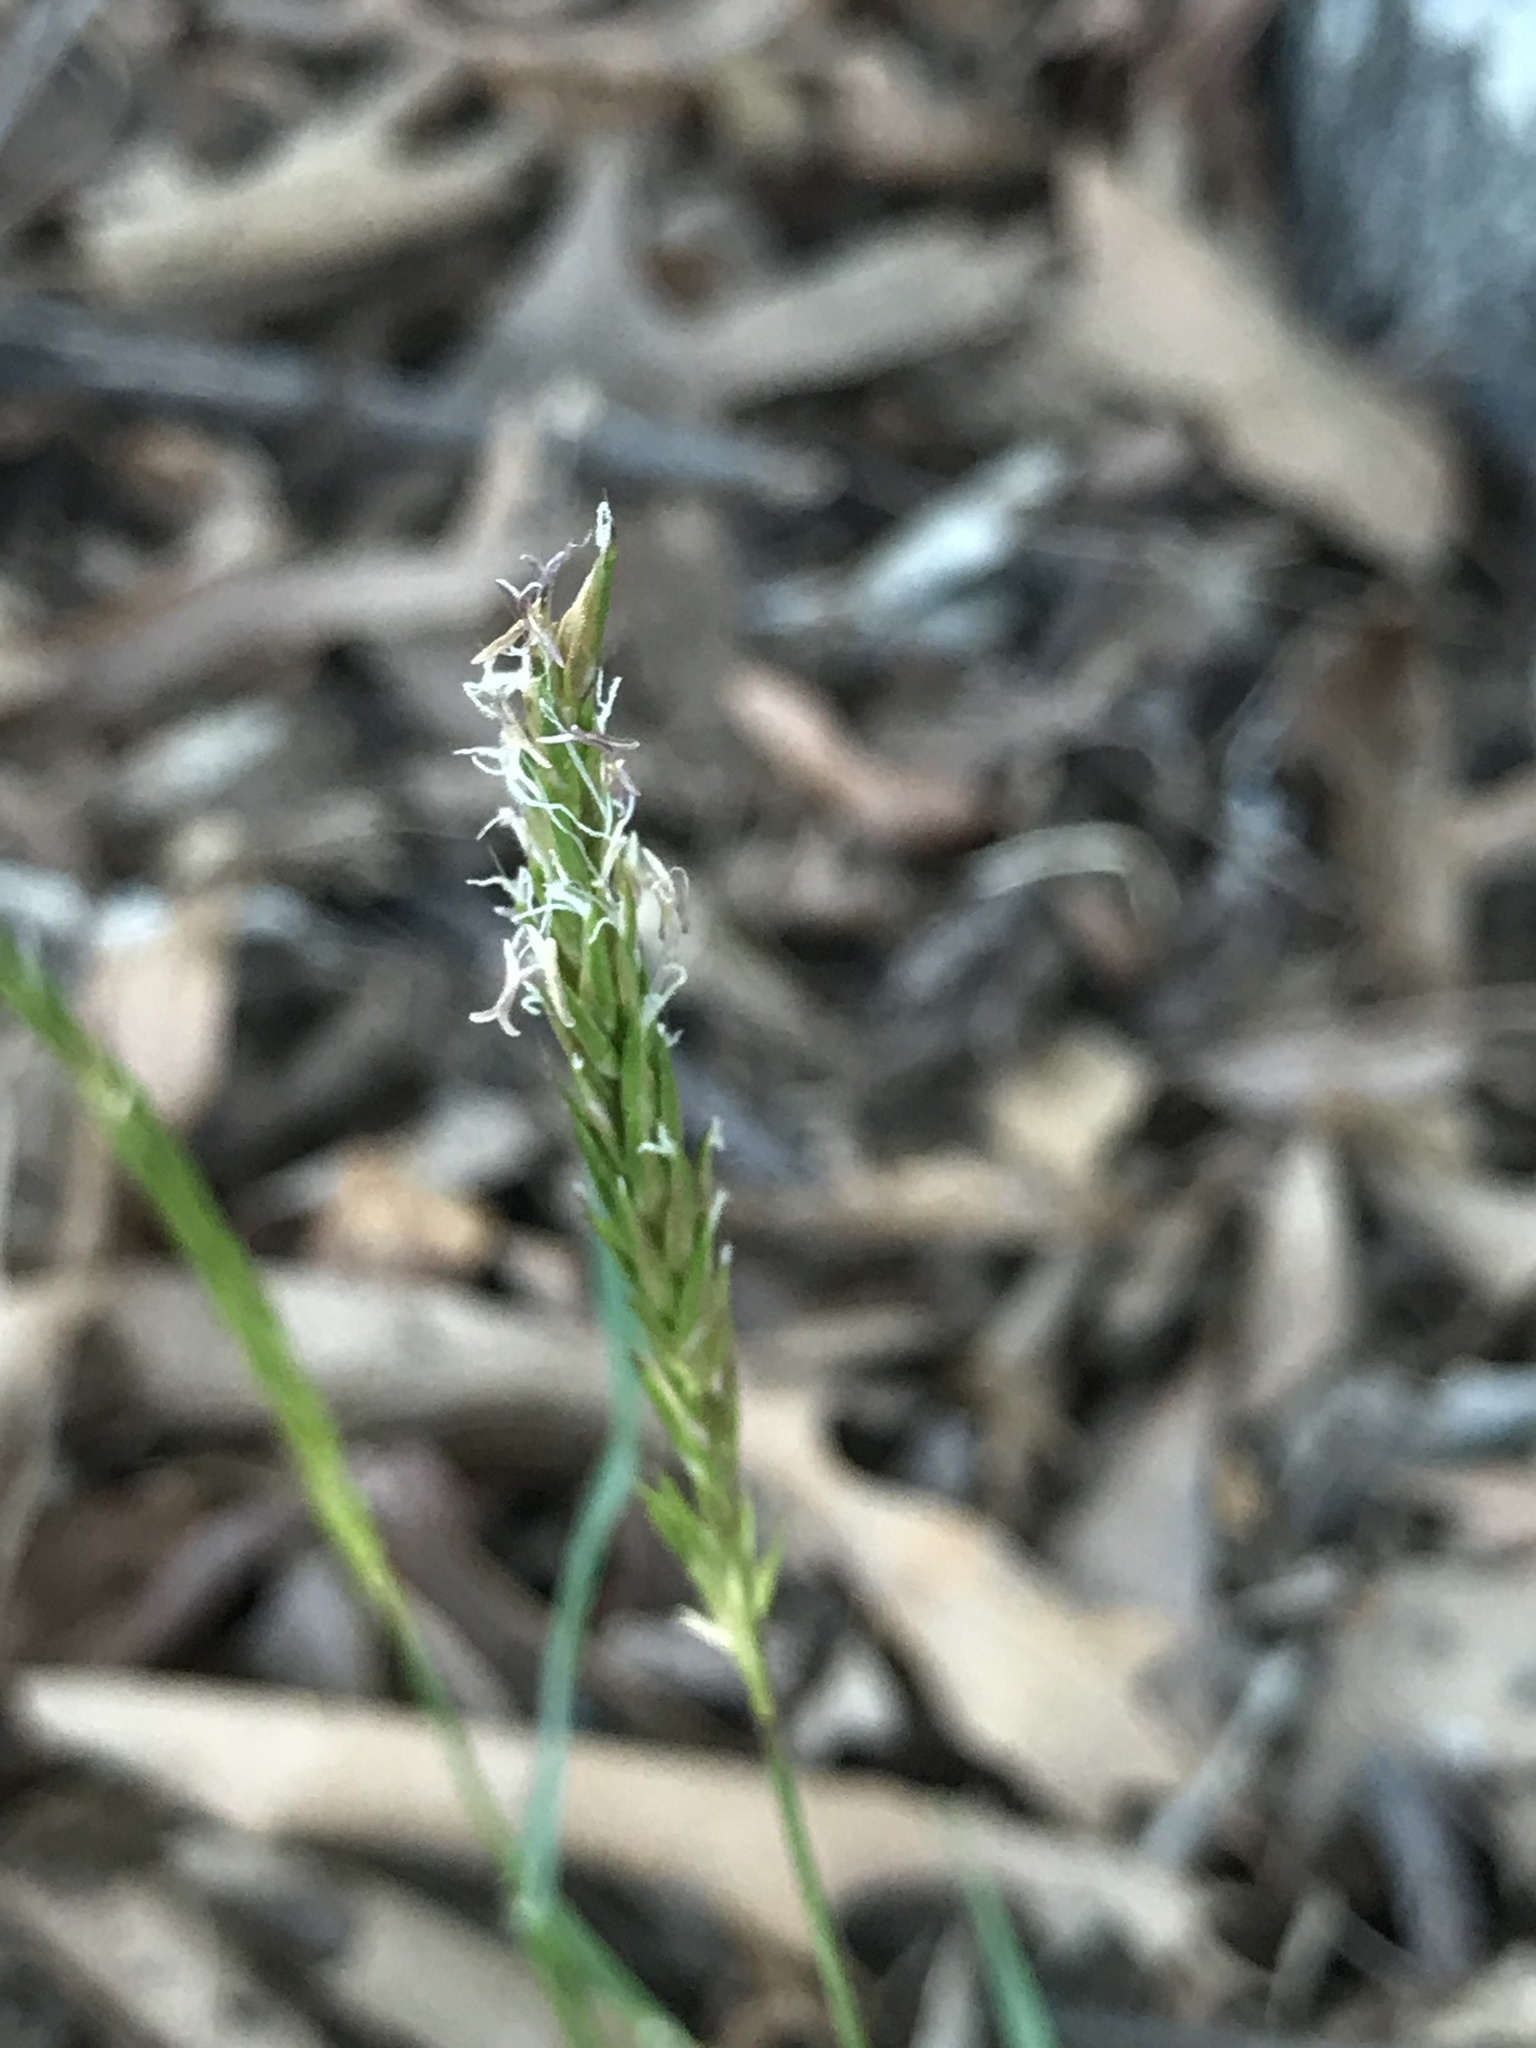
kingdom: Plantae
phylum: Tracheophyta
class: Liliopsida
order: Poales
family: Poaceae
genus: Anthoxanthum
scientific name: Anthoxanthum odoratum
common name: Sweet vernalgrass
